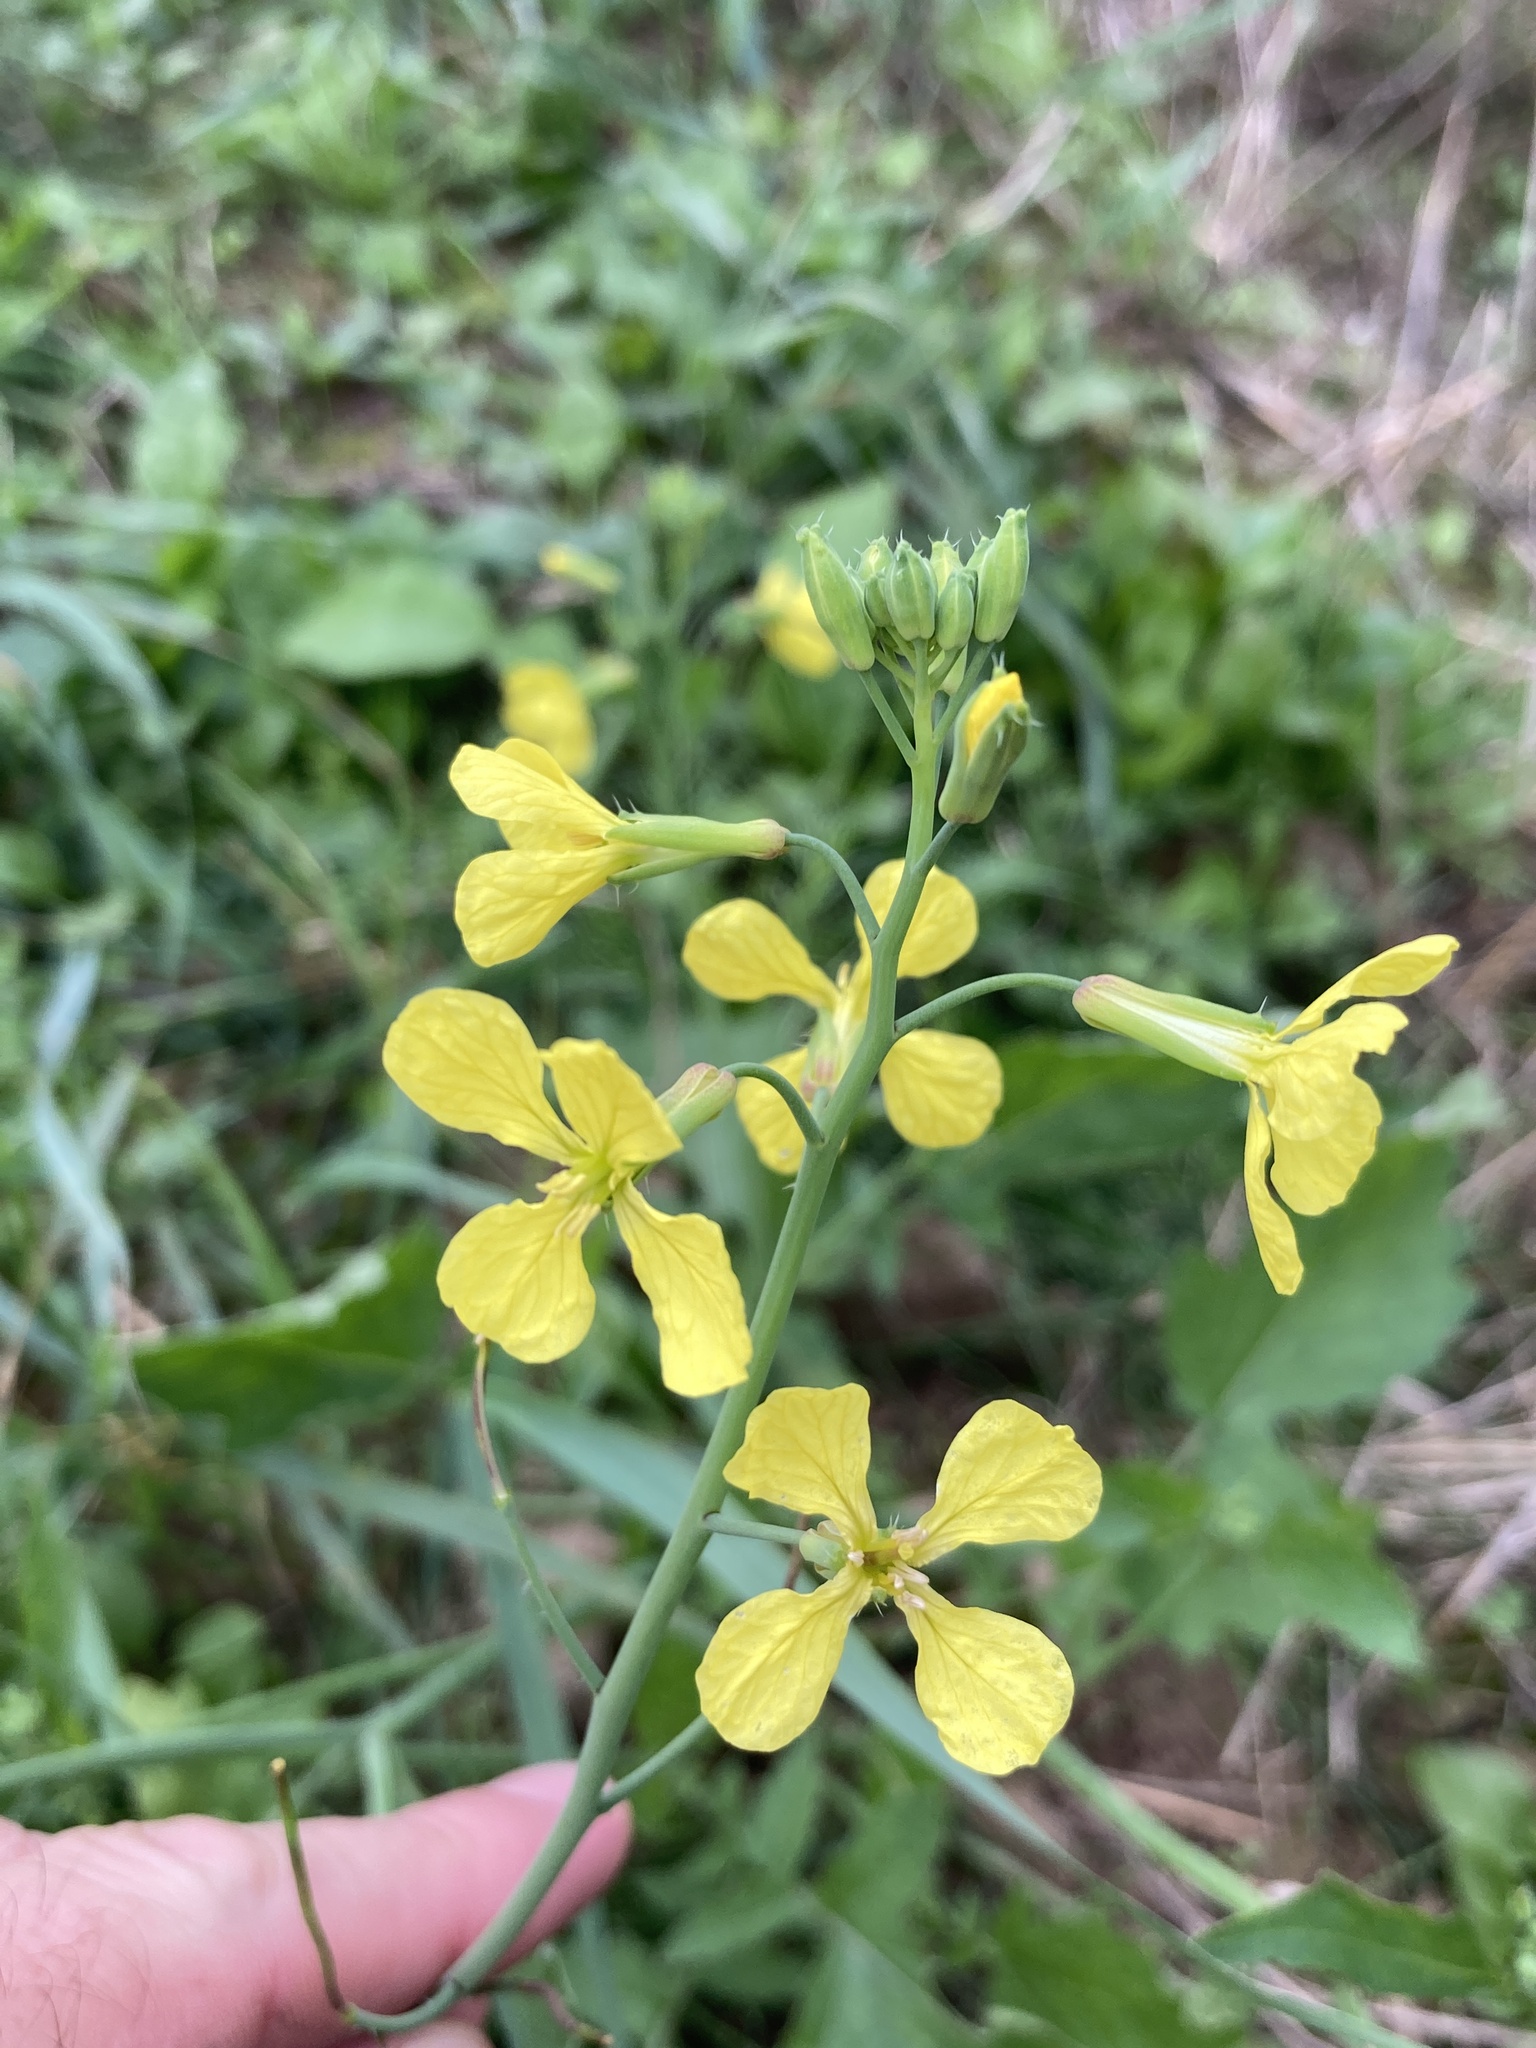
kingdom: Plantae
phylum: Tracheophyta
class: Magnoliopsida
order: Brassicales
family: Brassicaceae
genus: Raphanus
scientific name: Raphanus raphanistrum
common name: Wild radish
